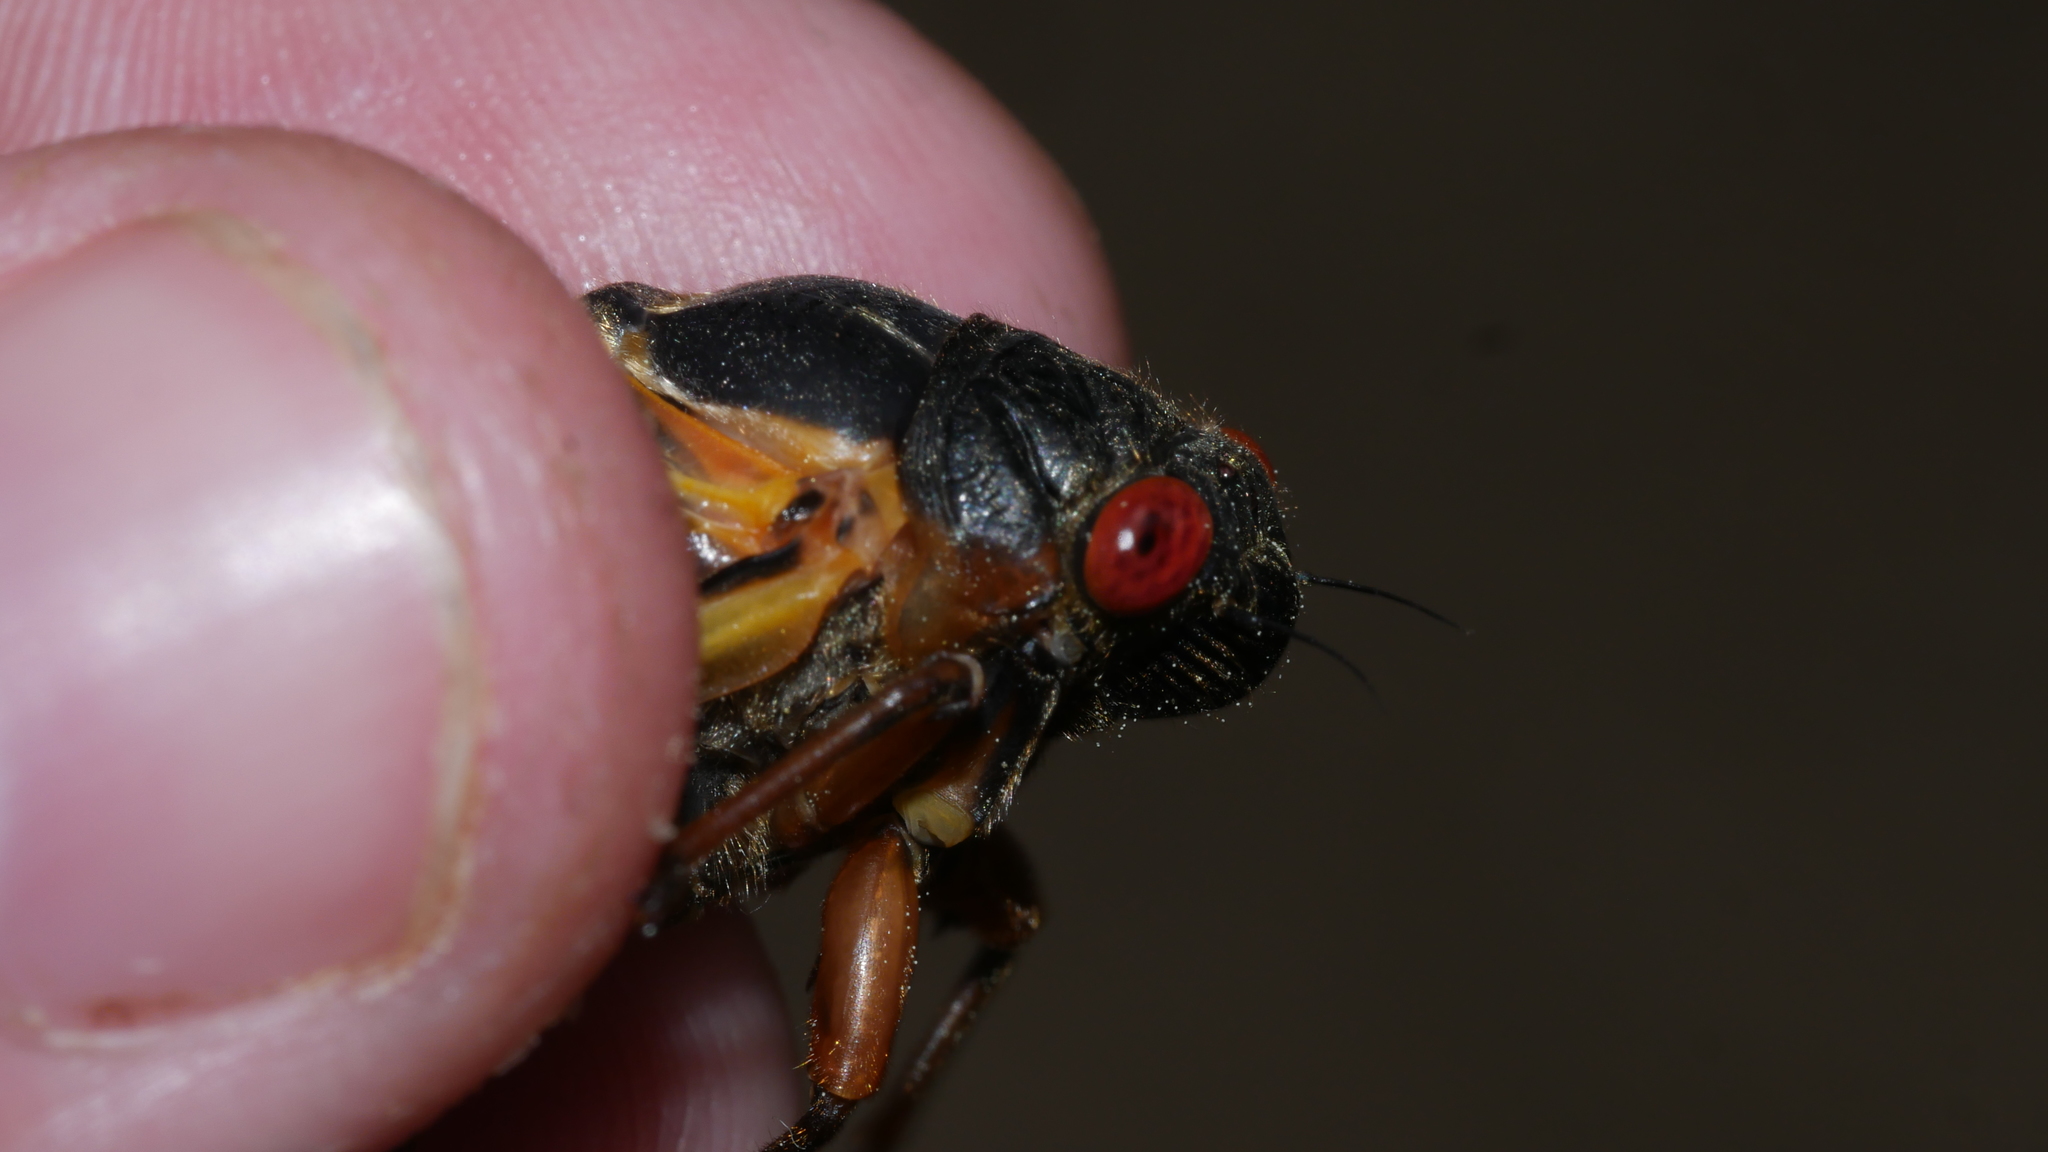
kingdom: Animalia
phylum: Arthropoda
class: Insecta
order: Hemiptera
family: Cicadidae
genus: Magicicada
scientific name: Magicicada septendecim
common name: Periodical cicada
